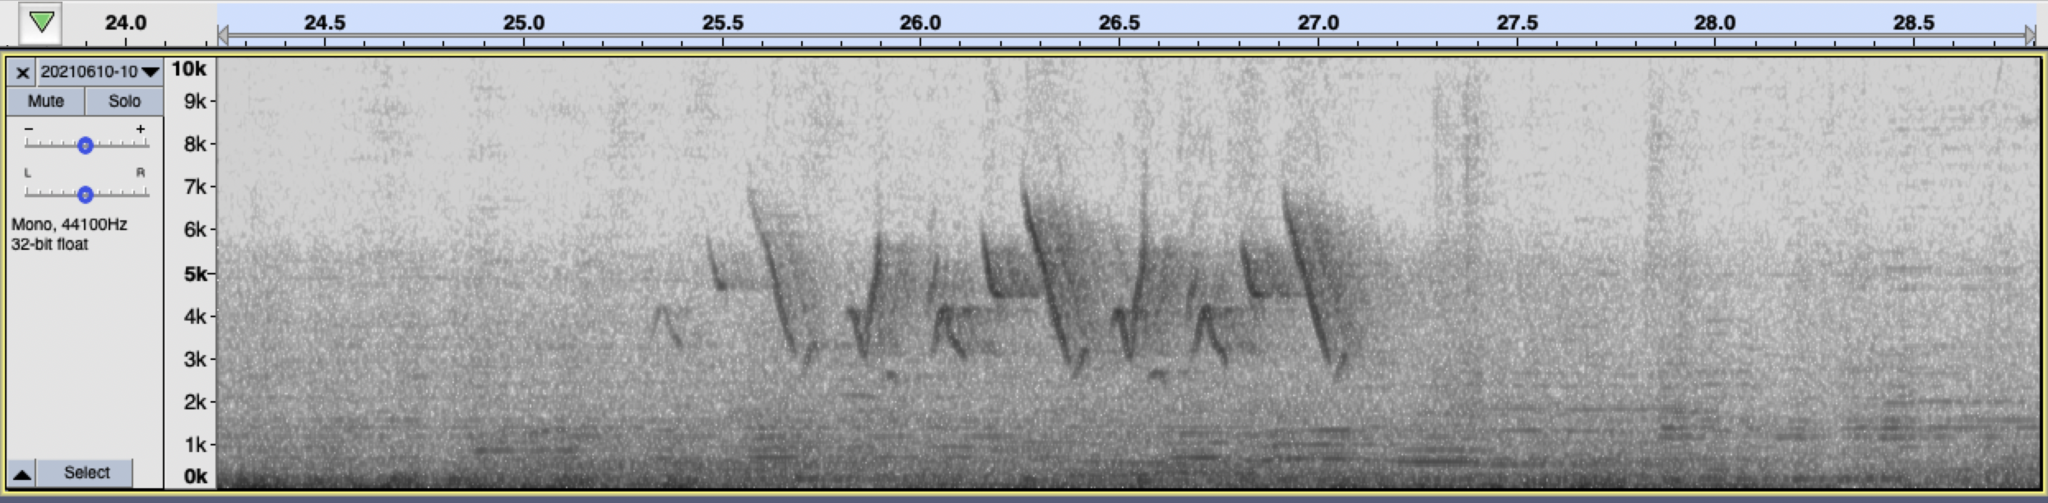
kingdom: Animalia
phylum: Chordata
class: Aves
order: Passeriformes
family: Parulidae
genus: Geothlypis
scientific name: Geothlypis trichas
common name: Common yellowthroat
